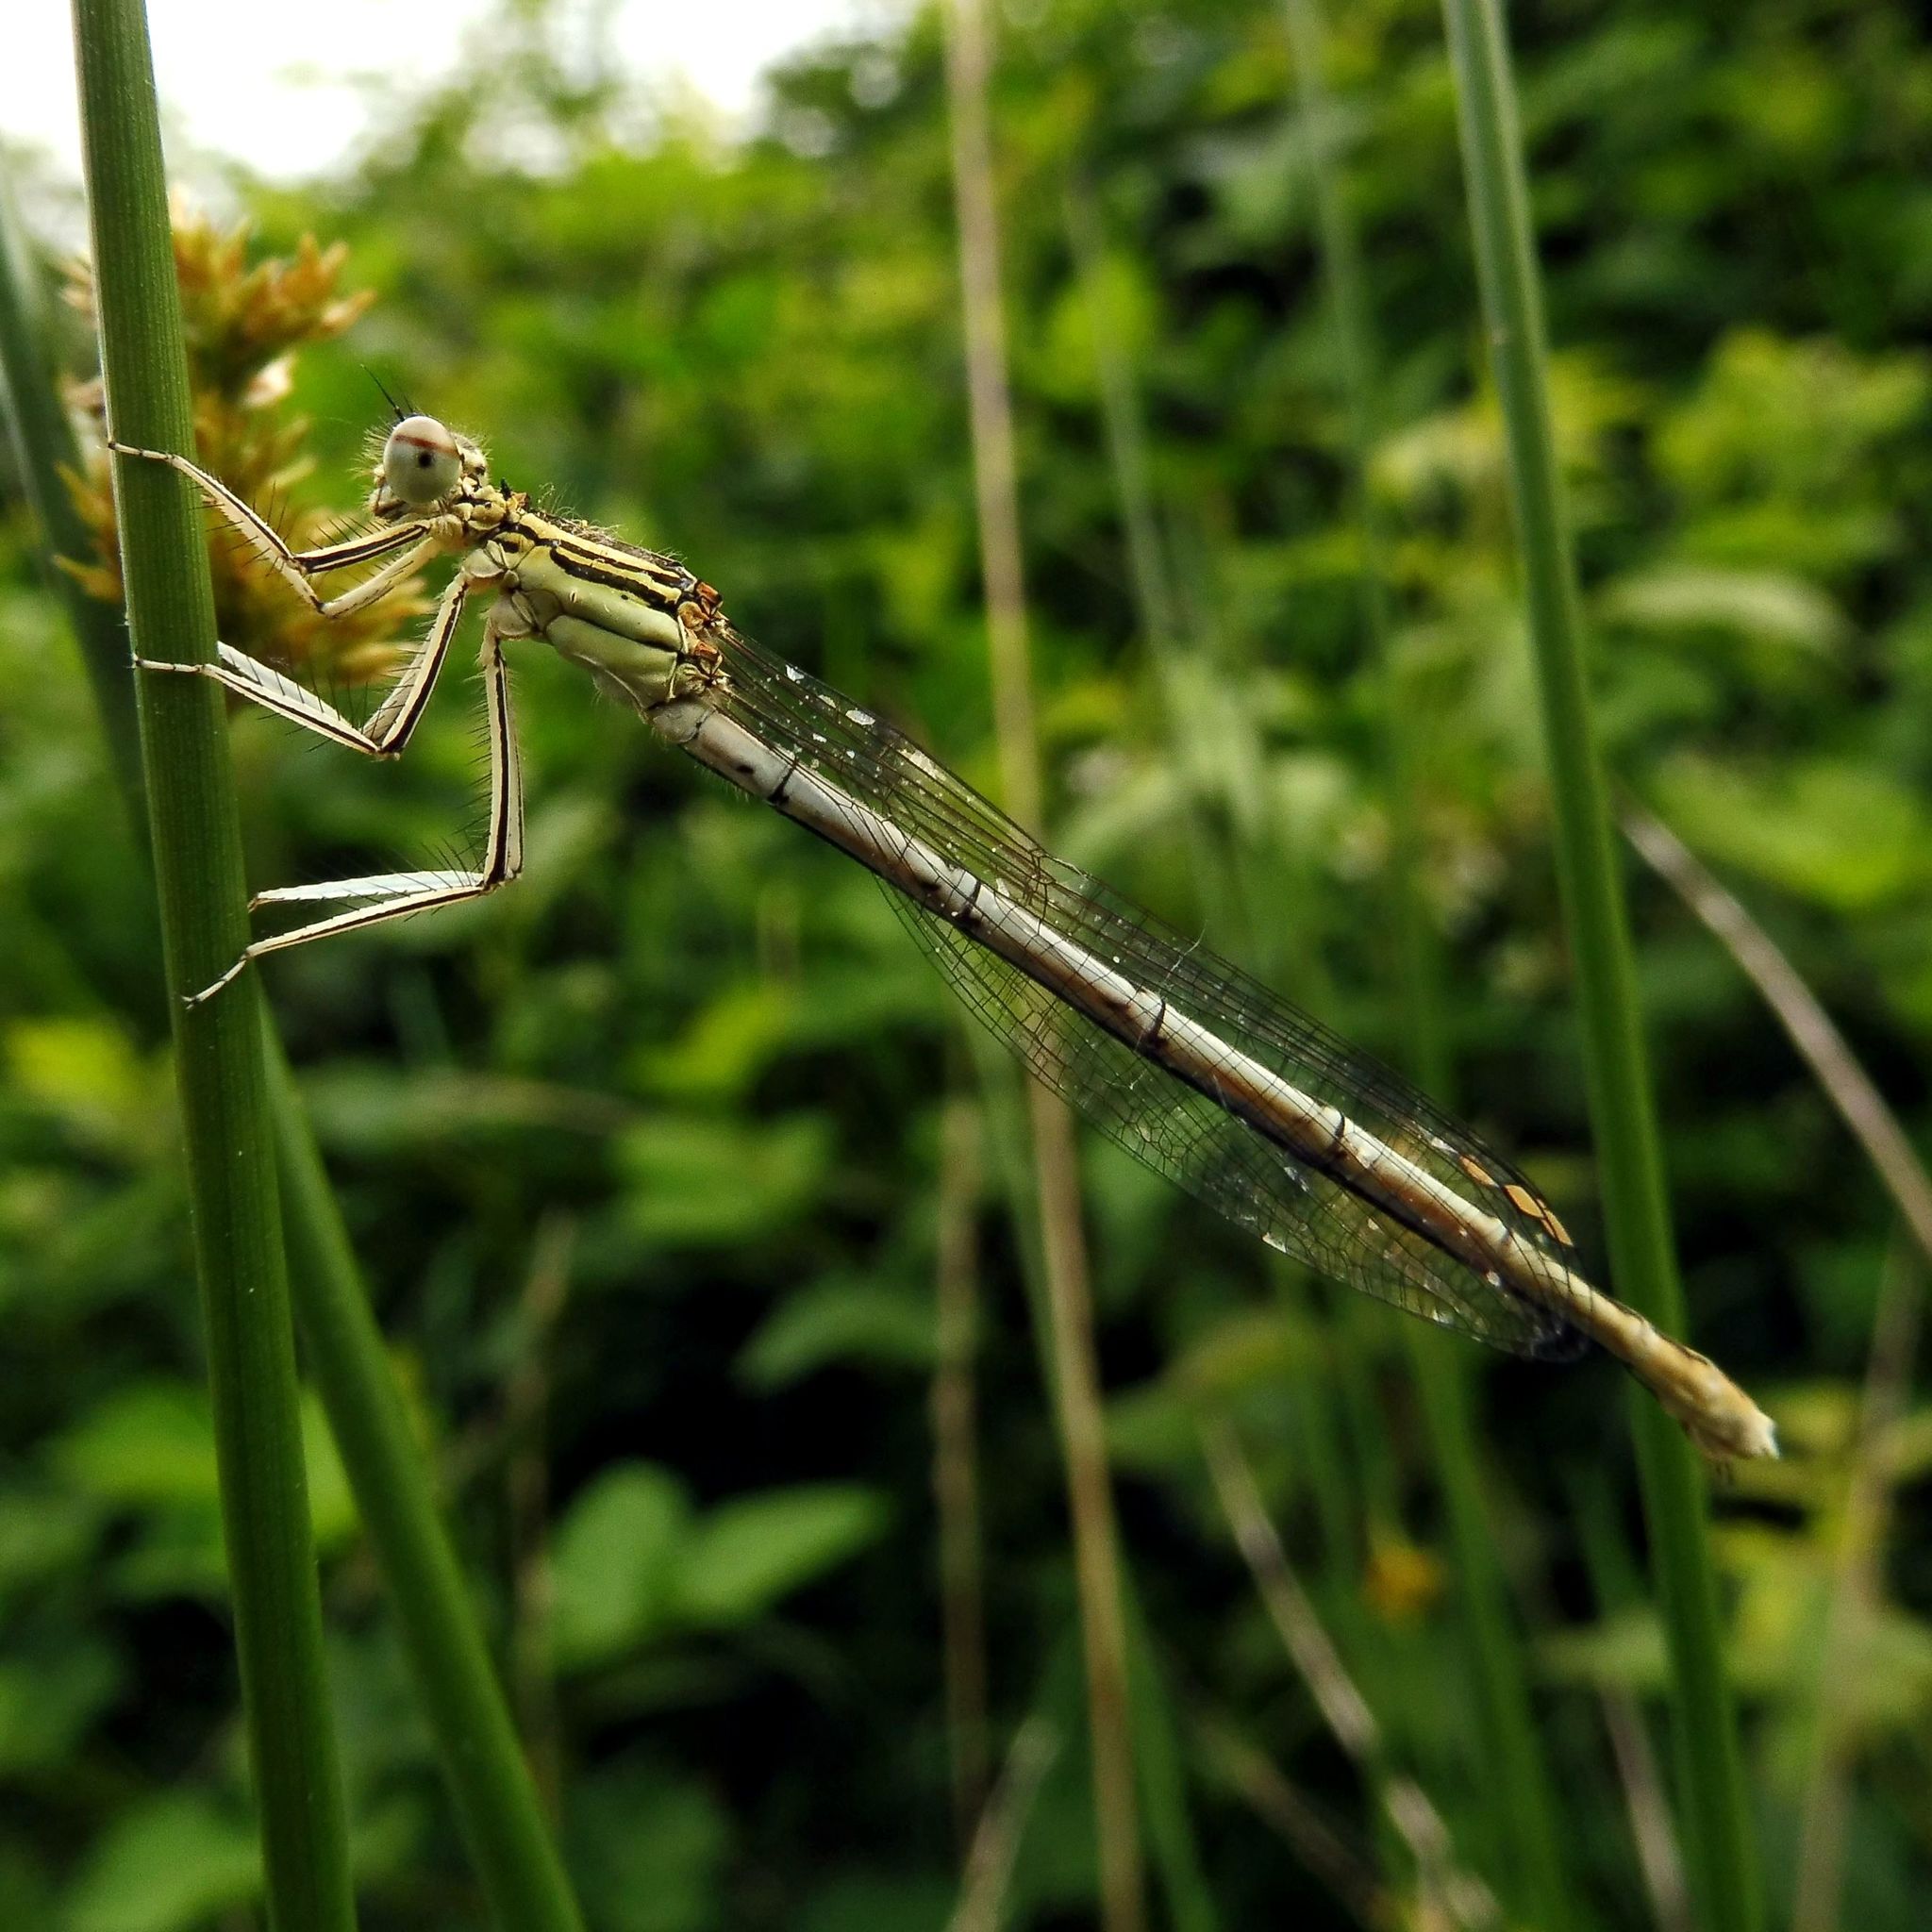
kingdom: Animalia
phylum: Arthropoda
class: Insecta
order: Odonata
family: Platycnemididae
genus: Platycnemis
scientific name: Platycnemis pennipes
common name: White-legged damselfly
